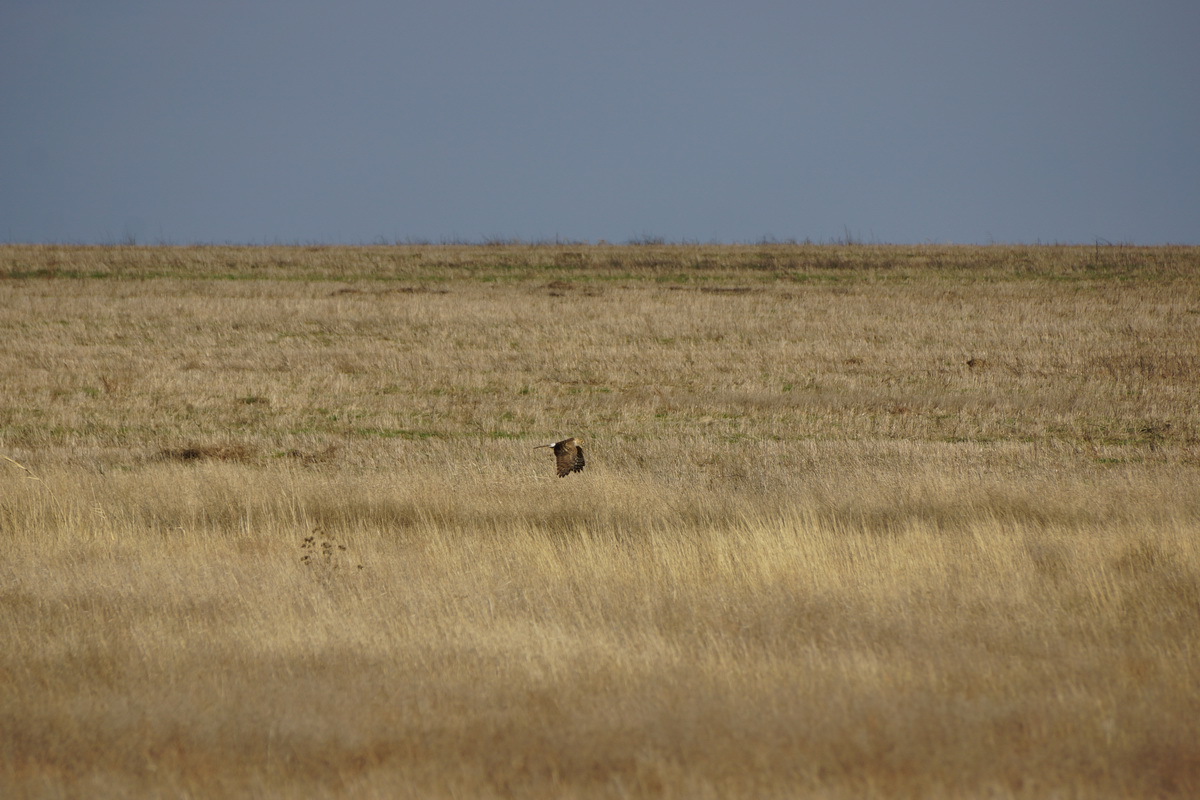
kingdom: Animalia
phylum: Chordata
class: Aves
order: Accipitriformes
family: Accipitridae
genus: Circus
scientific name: Circus cyaneus
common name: Hen harrier
